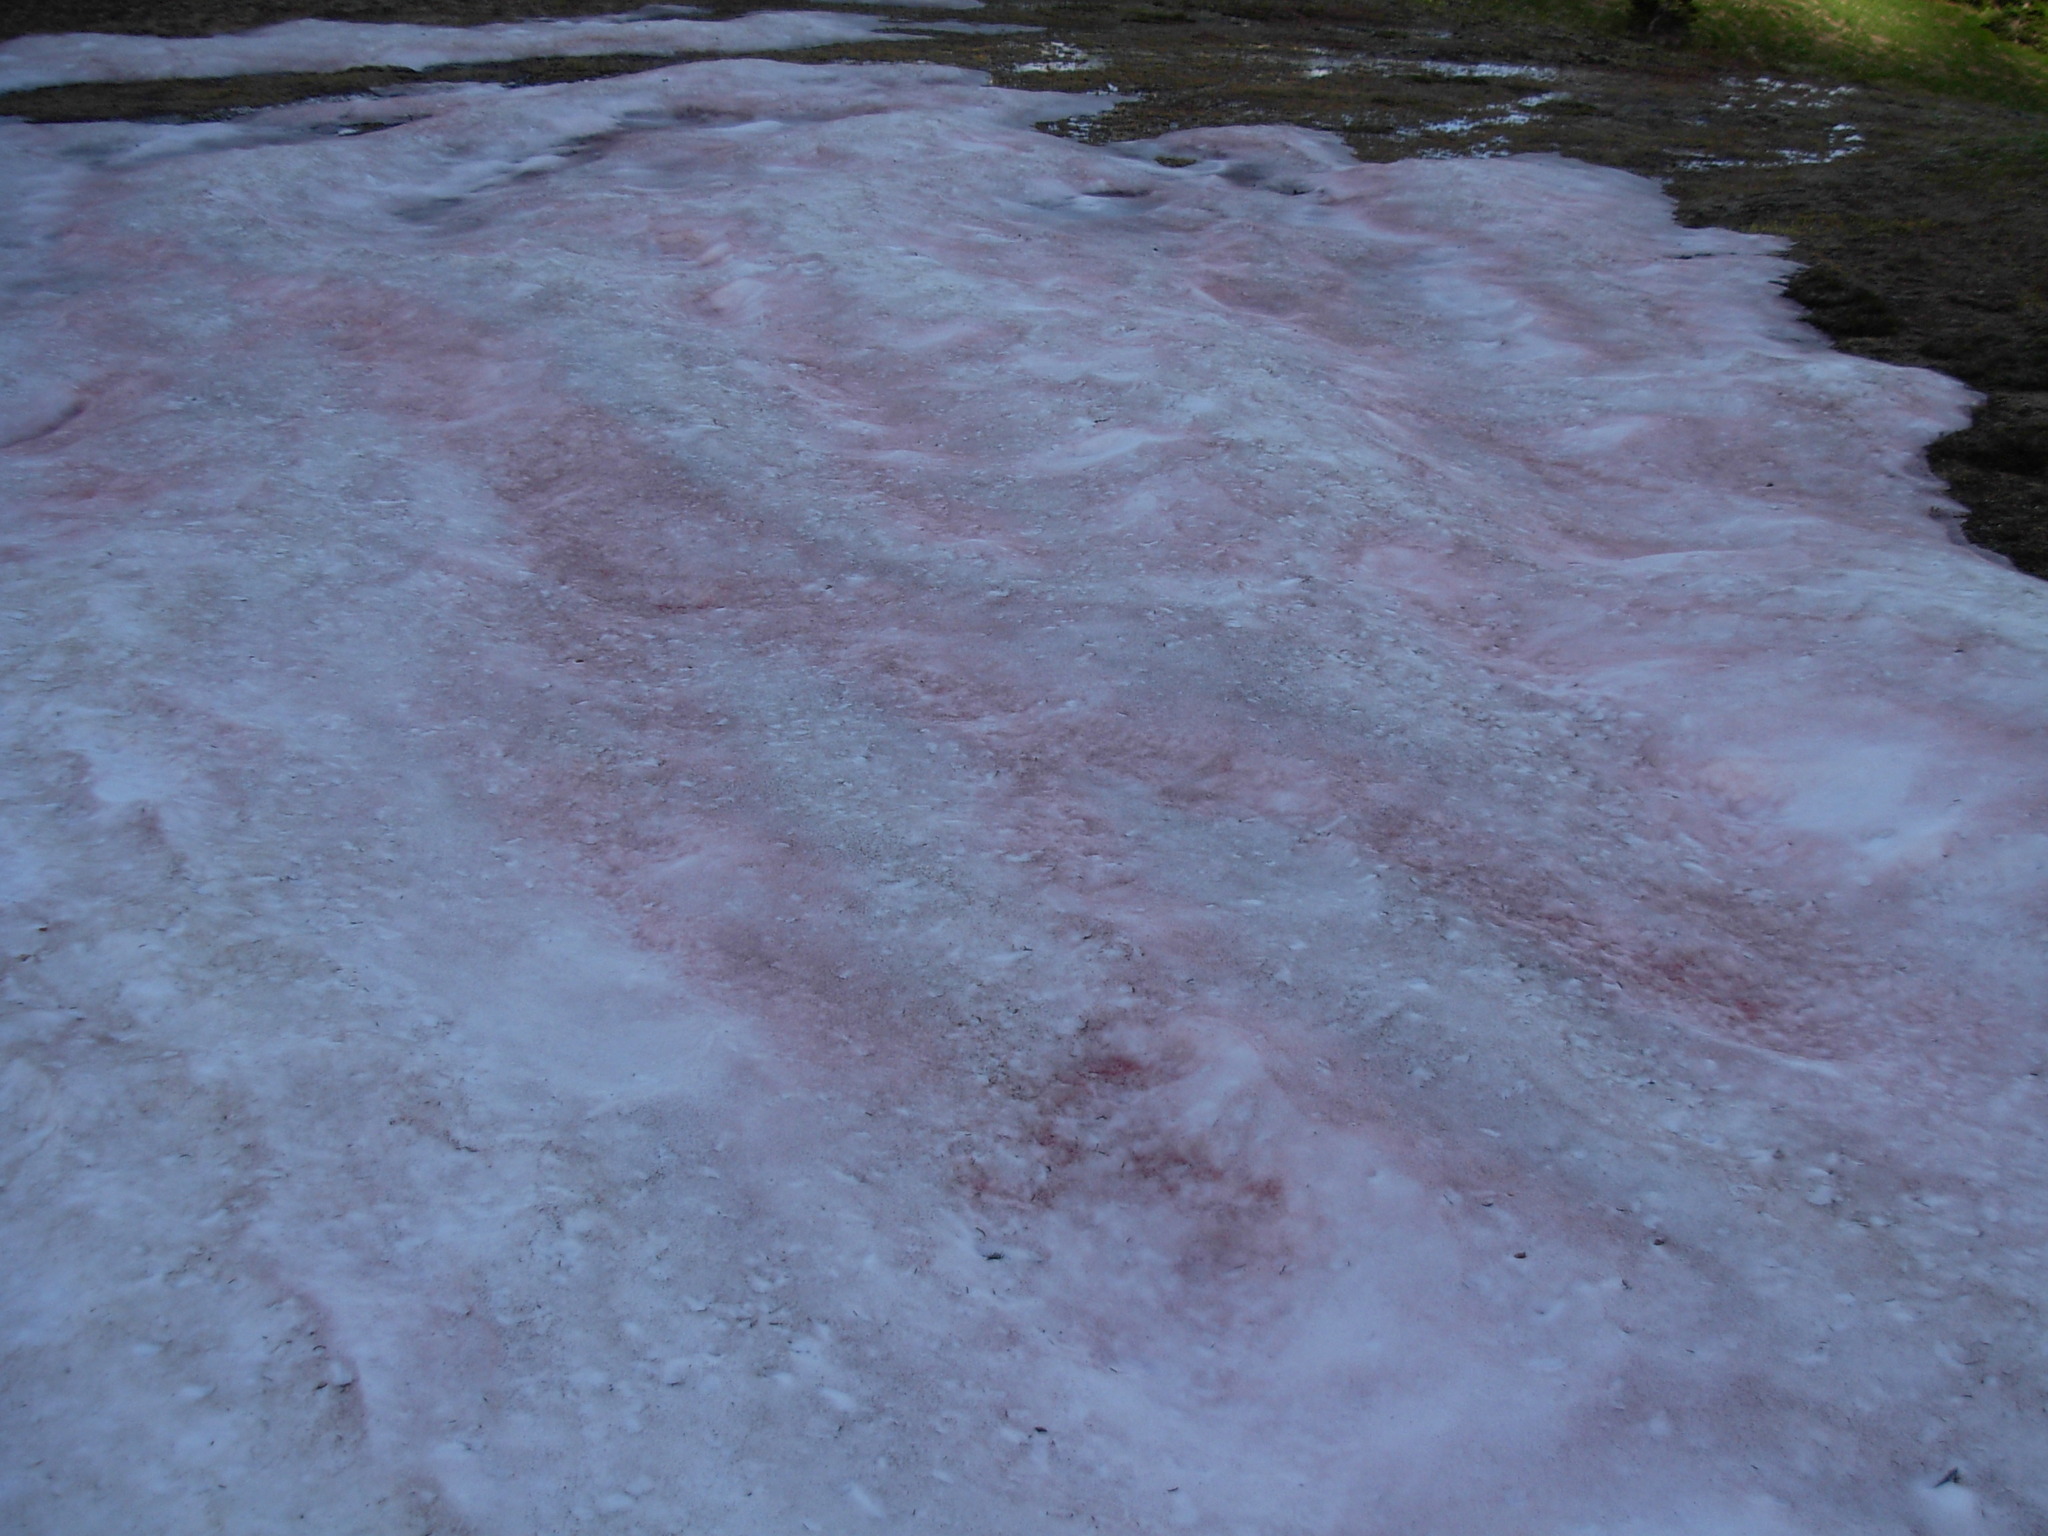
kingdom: Plantae
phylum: Chlorophyta
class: Chlorophyceae
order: Volvocales
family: Chlamydomonadaceae
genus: Chlamydomonas
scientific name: Chlamydomonas nivalis
